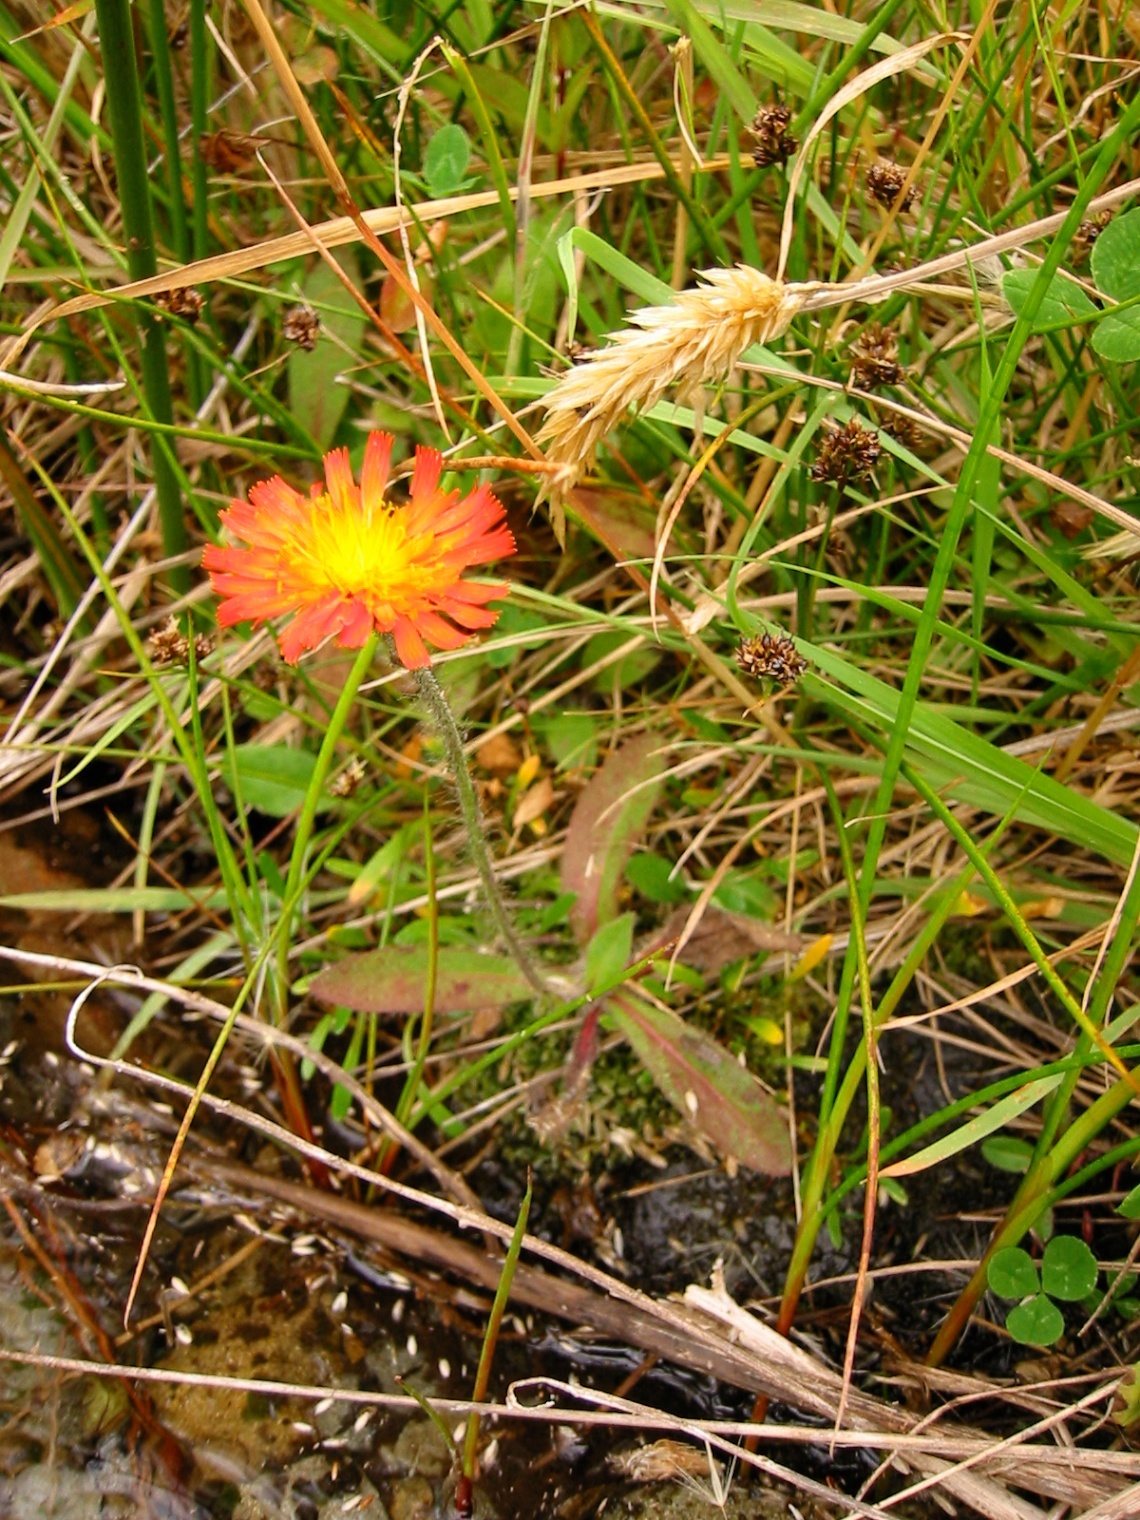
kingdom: Plantae
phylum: Tracheophyta
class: Magnoliopsida
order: Asterales
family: Asteraceae
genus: Pilosella
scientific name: Pilosella aurantiaca
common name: Fox-and-cubs
